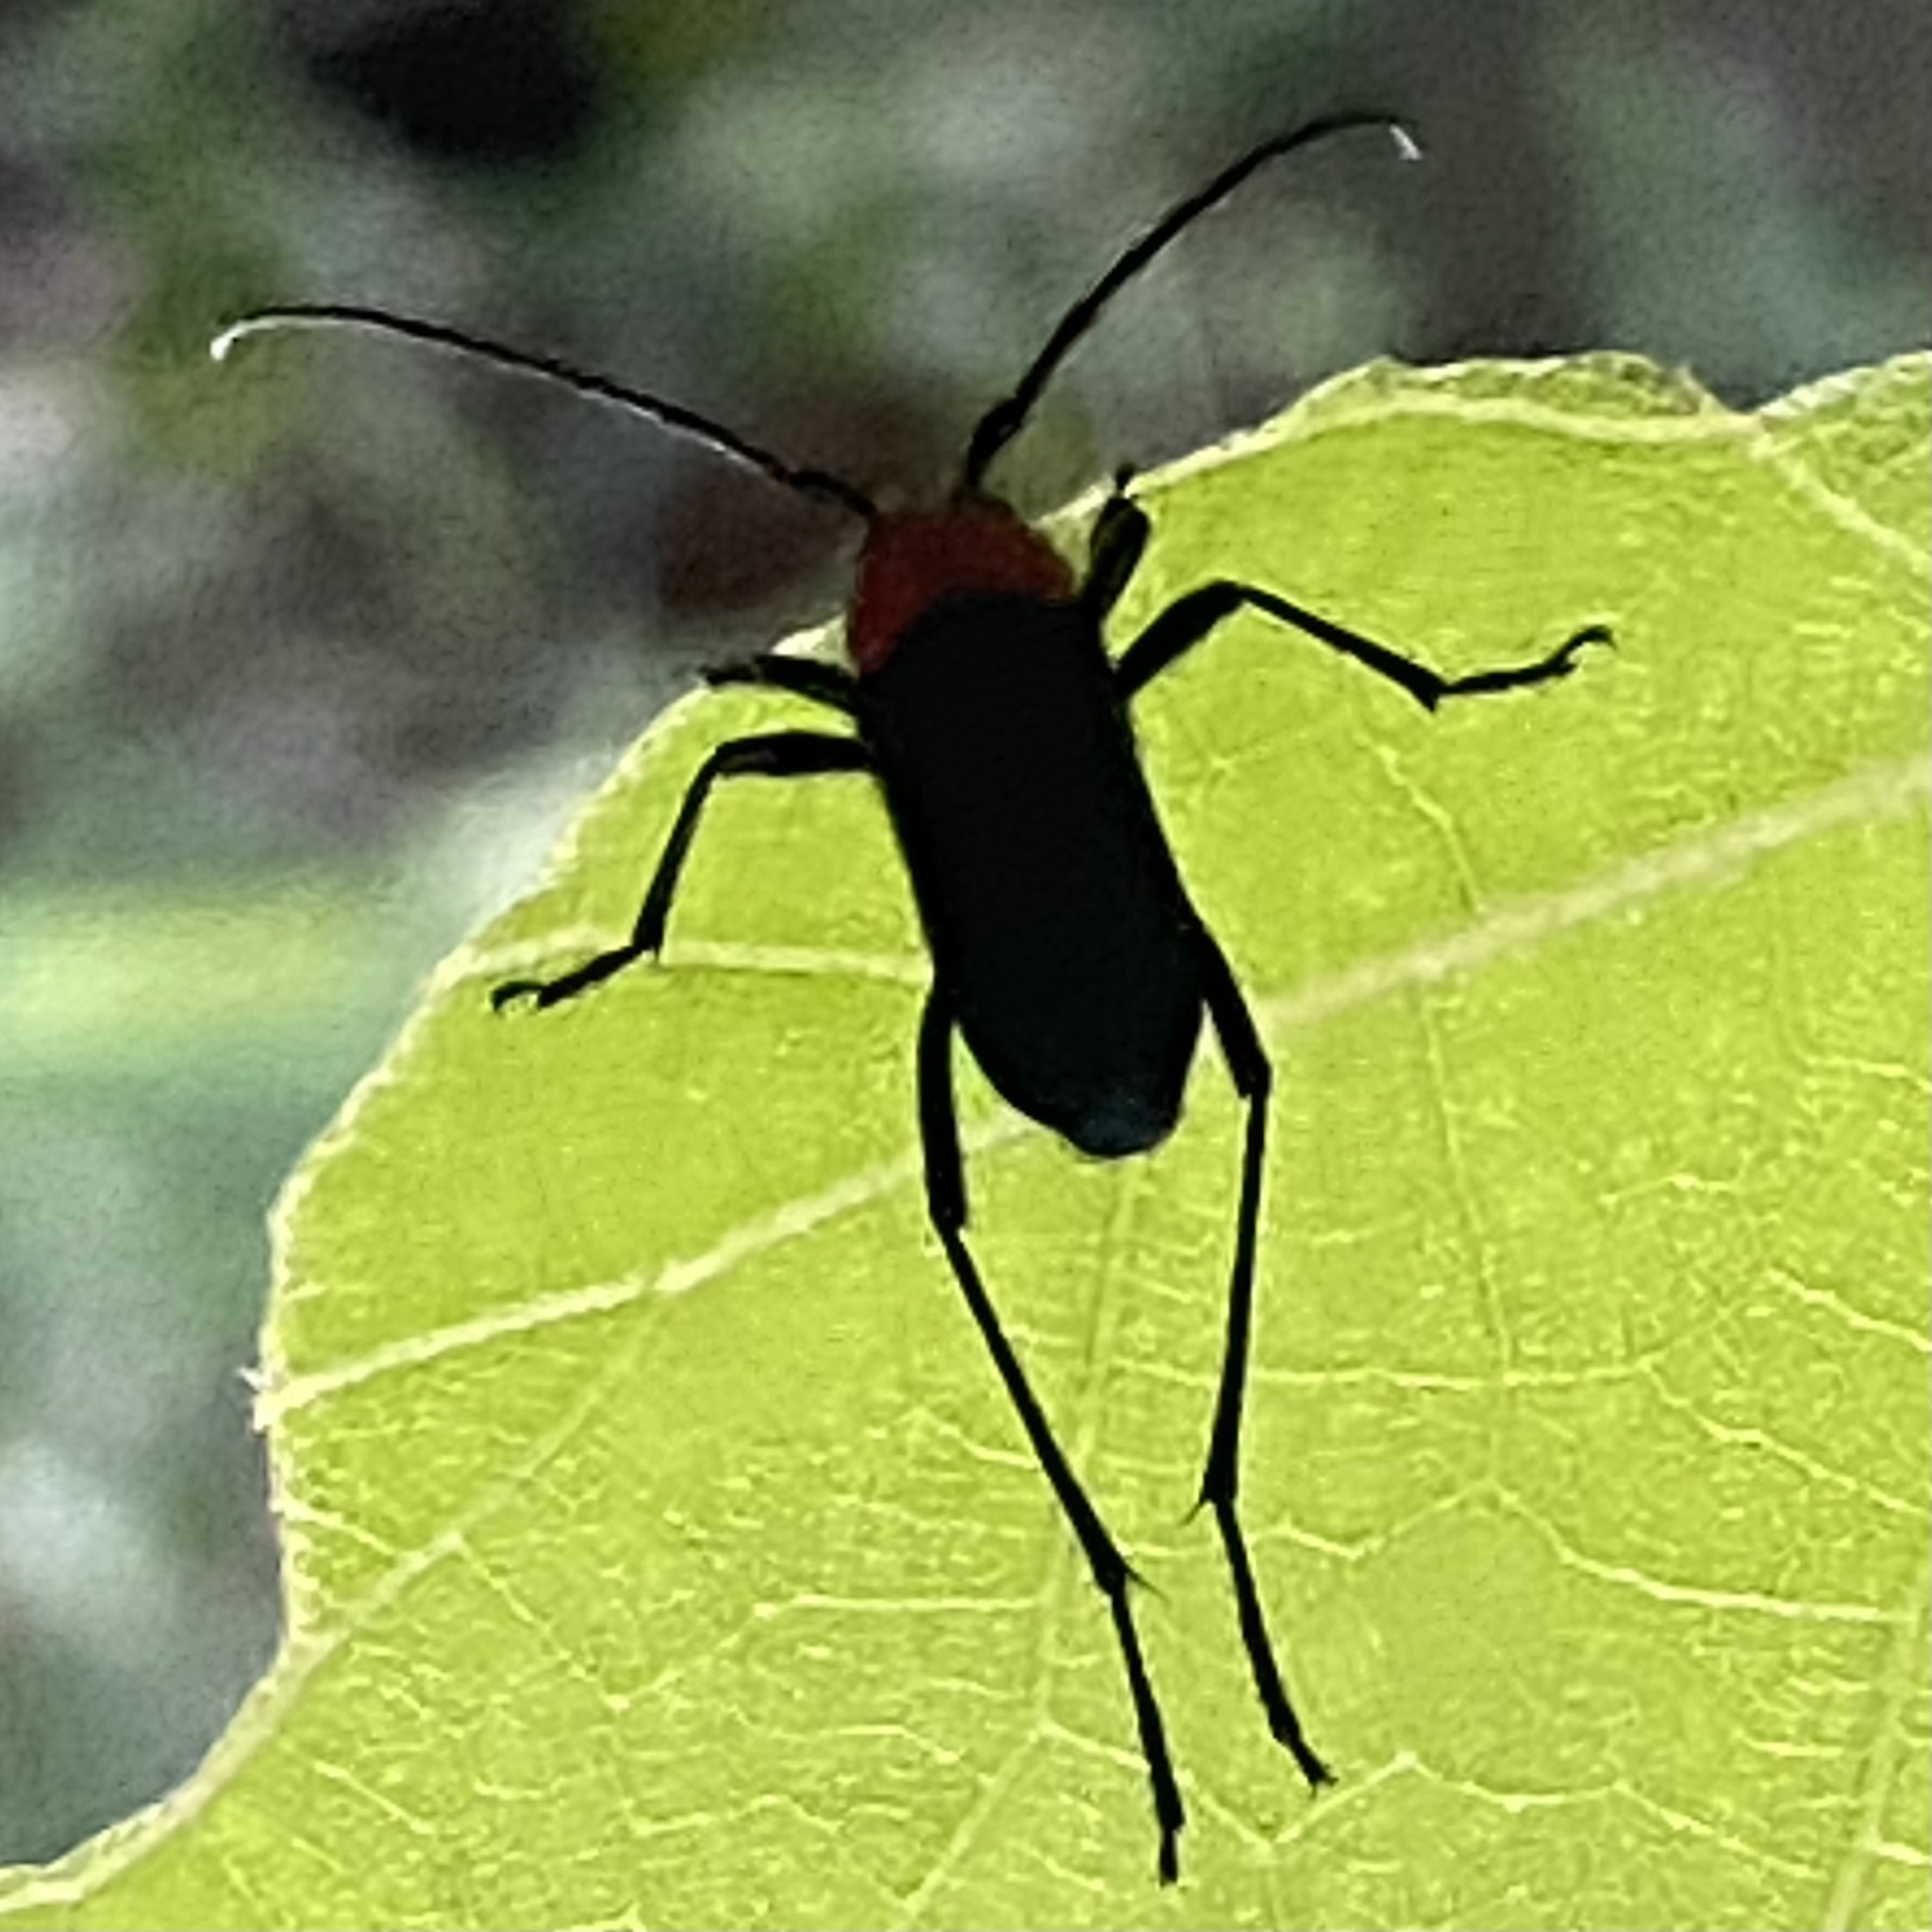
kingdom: Animalia
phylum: Arthropoda
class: Insecta
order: Coleoptera
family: Cerambycidae
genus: Batyle
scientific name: Batyle ignicollis
